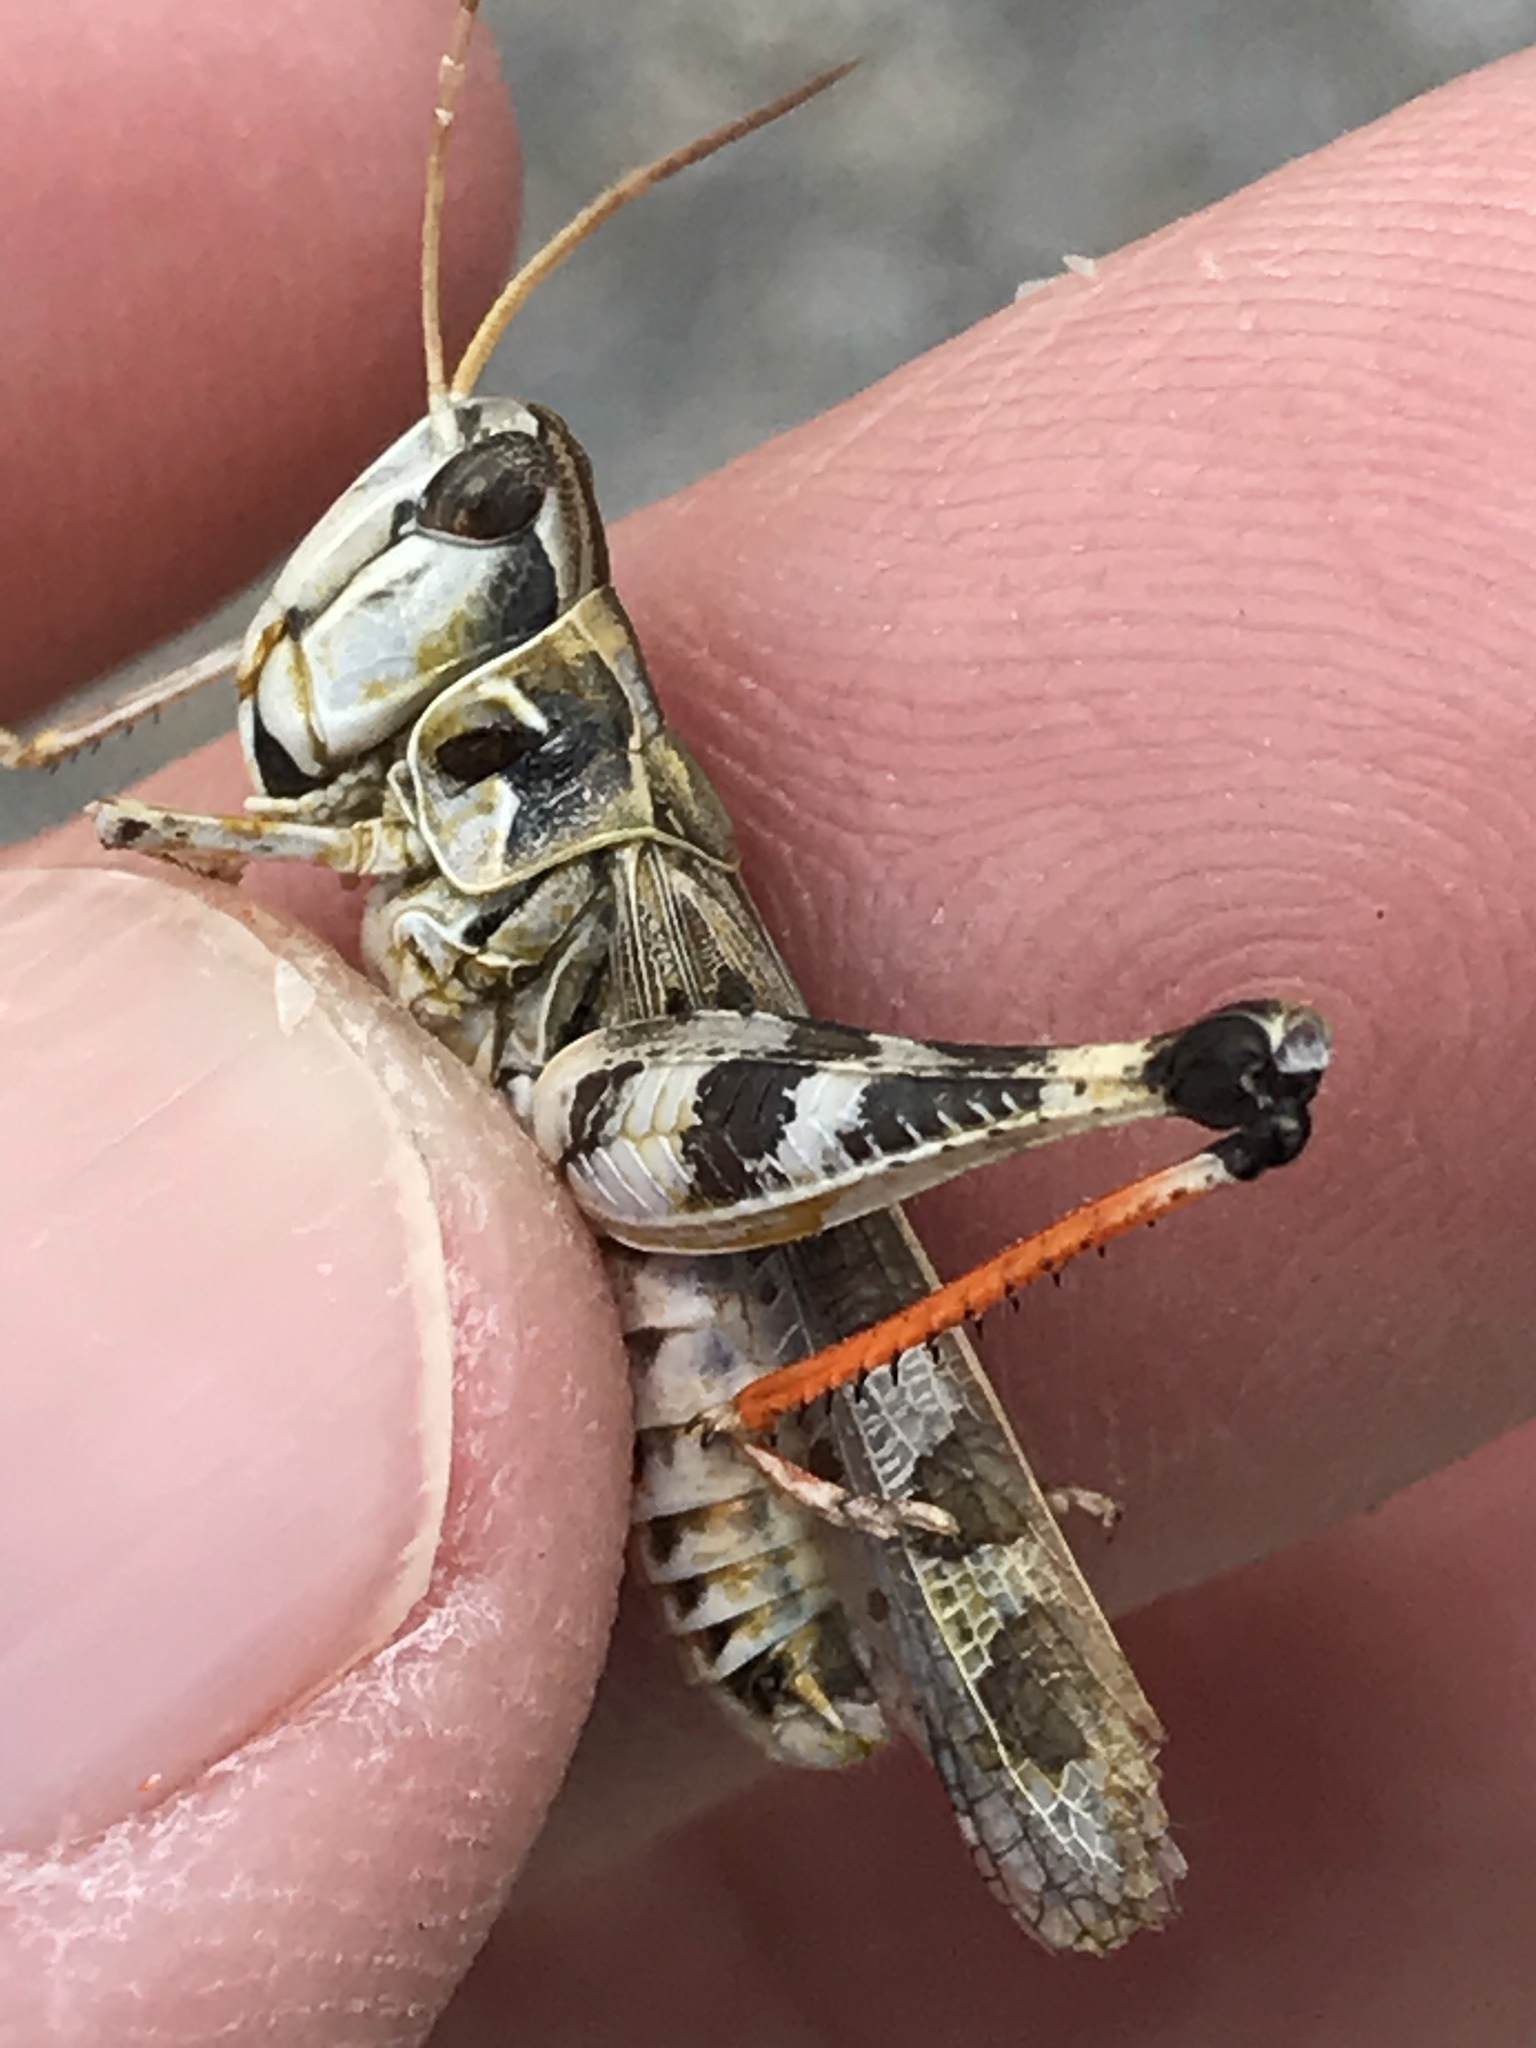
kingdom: Animalia
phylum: Arthropoda
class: Insecta
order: Orthoptera
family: Acrididae
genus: Phlibostroma
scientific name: Phlibostroma quadrimaculatum
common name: Four-spotted grasshopper
